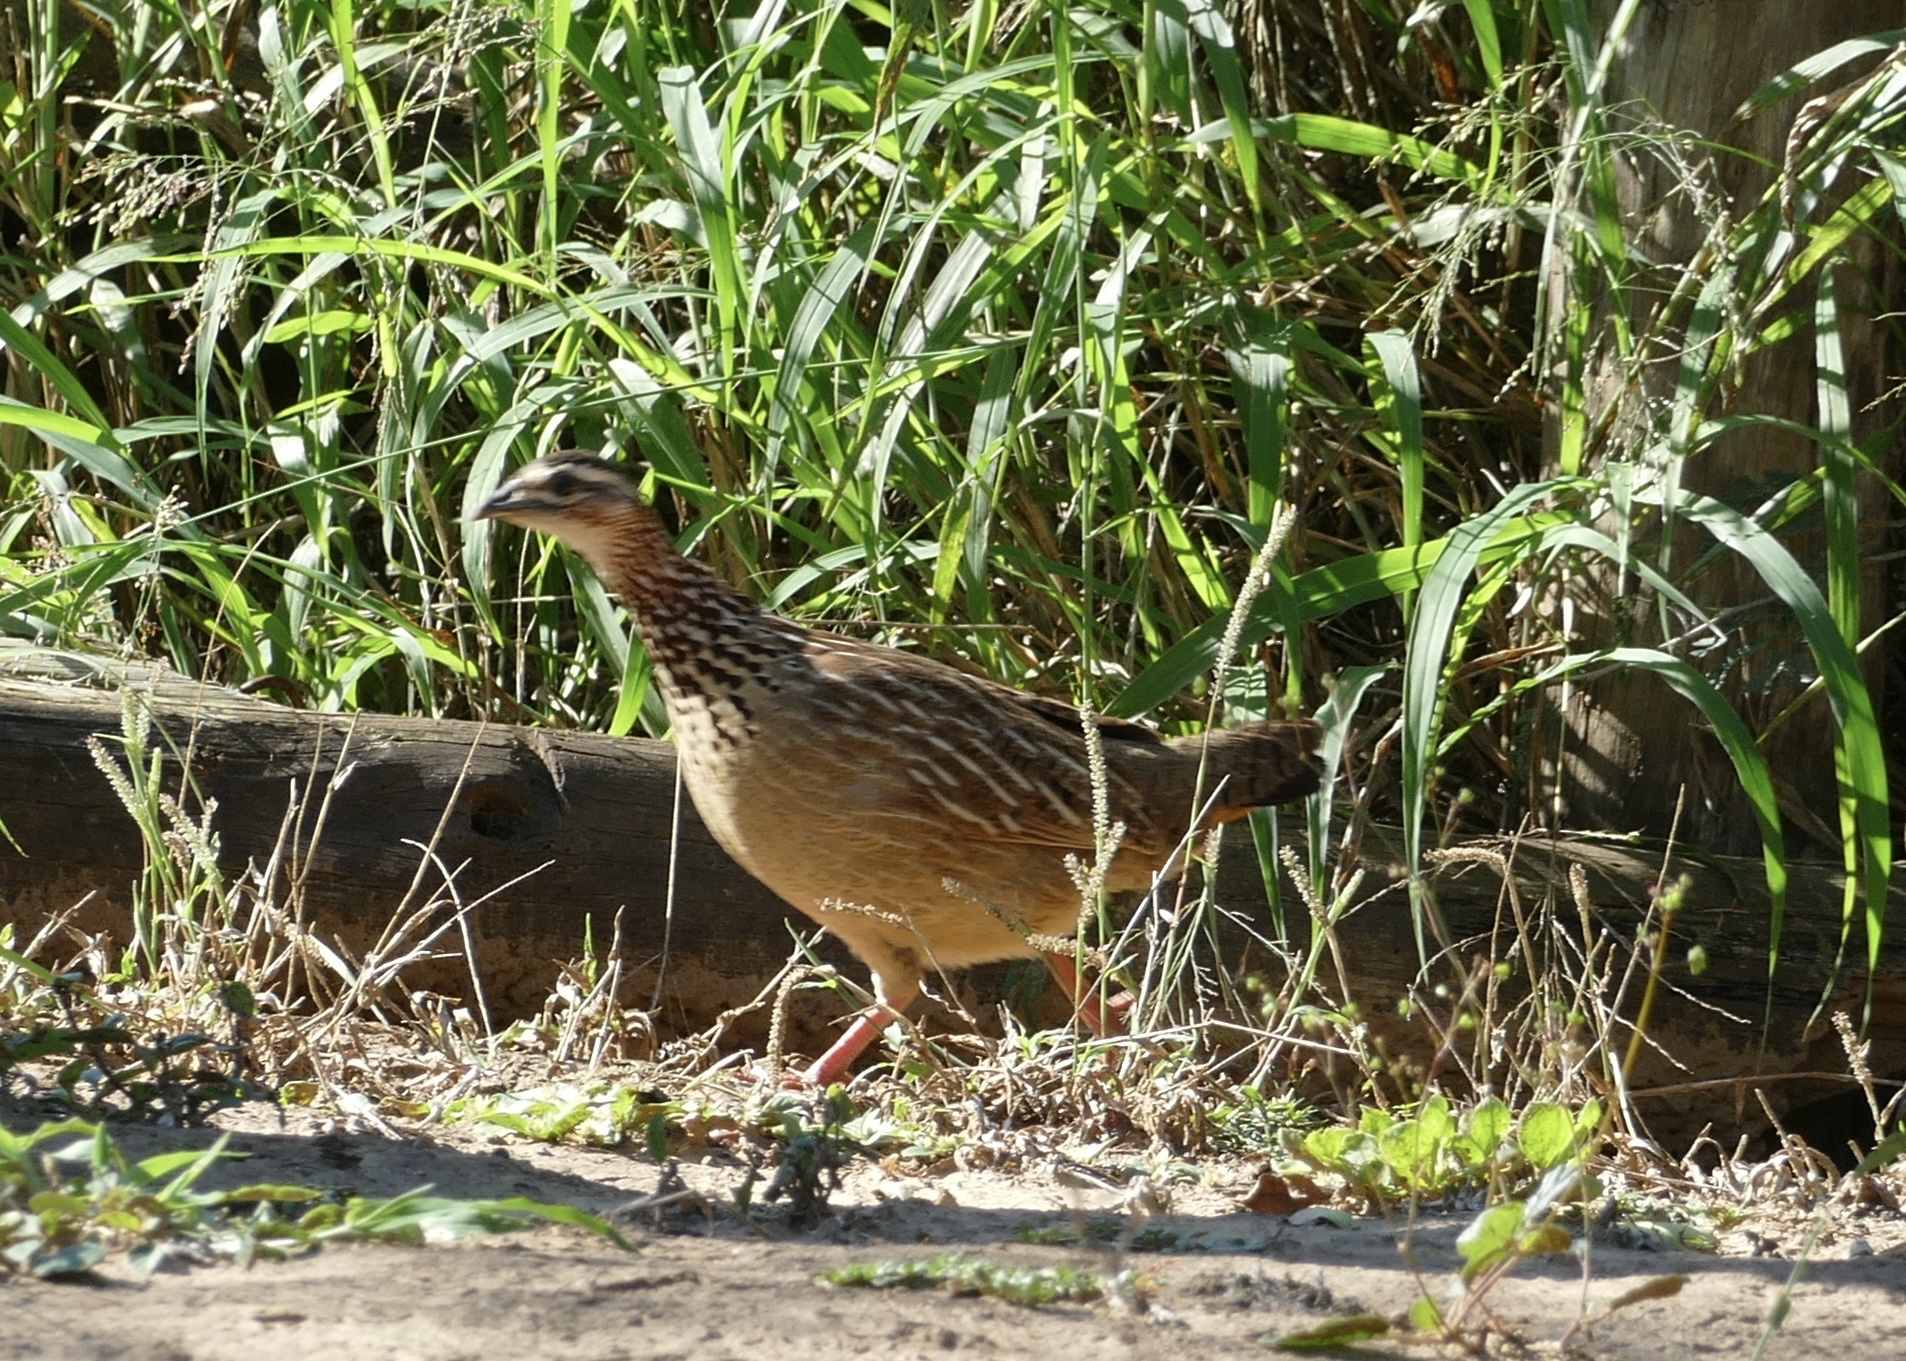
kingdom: Animalia
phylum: Chordata
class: Aves
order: Galliformes
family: Phasianidae
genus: Ortygornis
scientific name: Ortygornis sephaena
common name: Crested francolin
